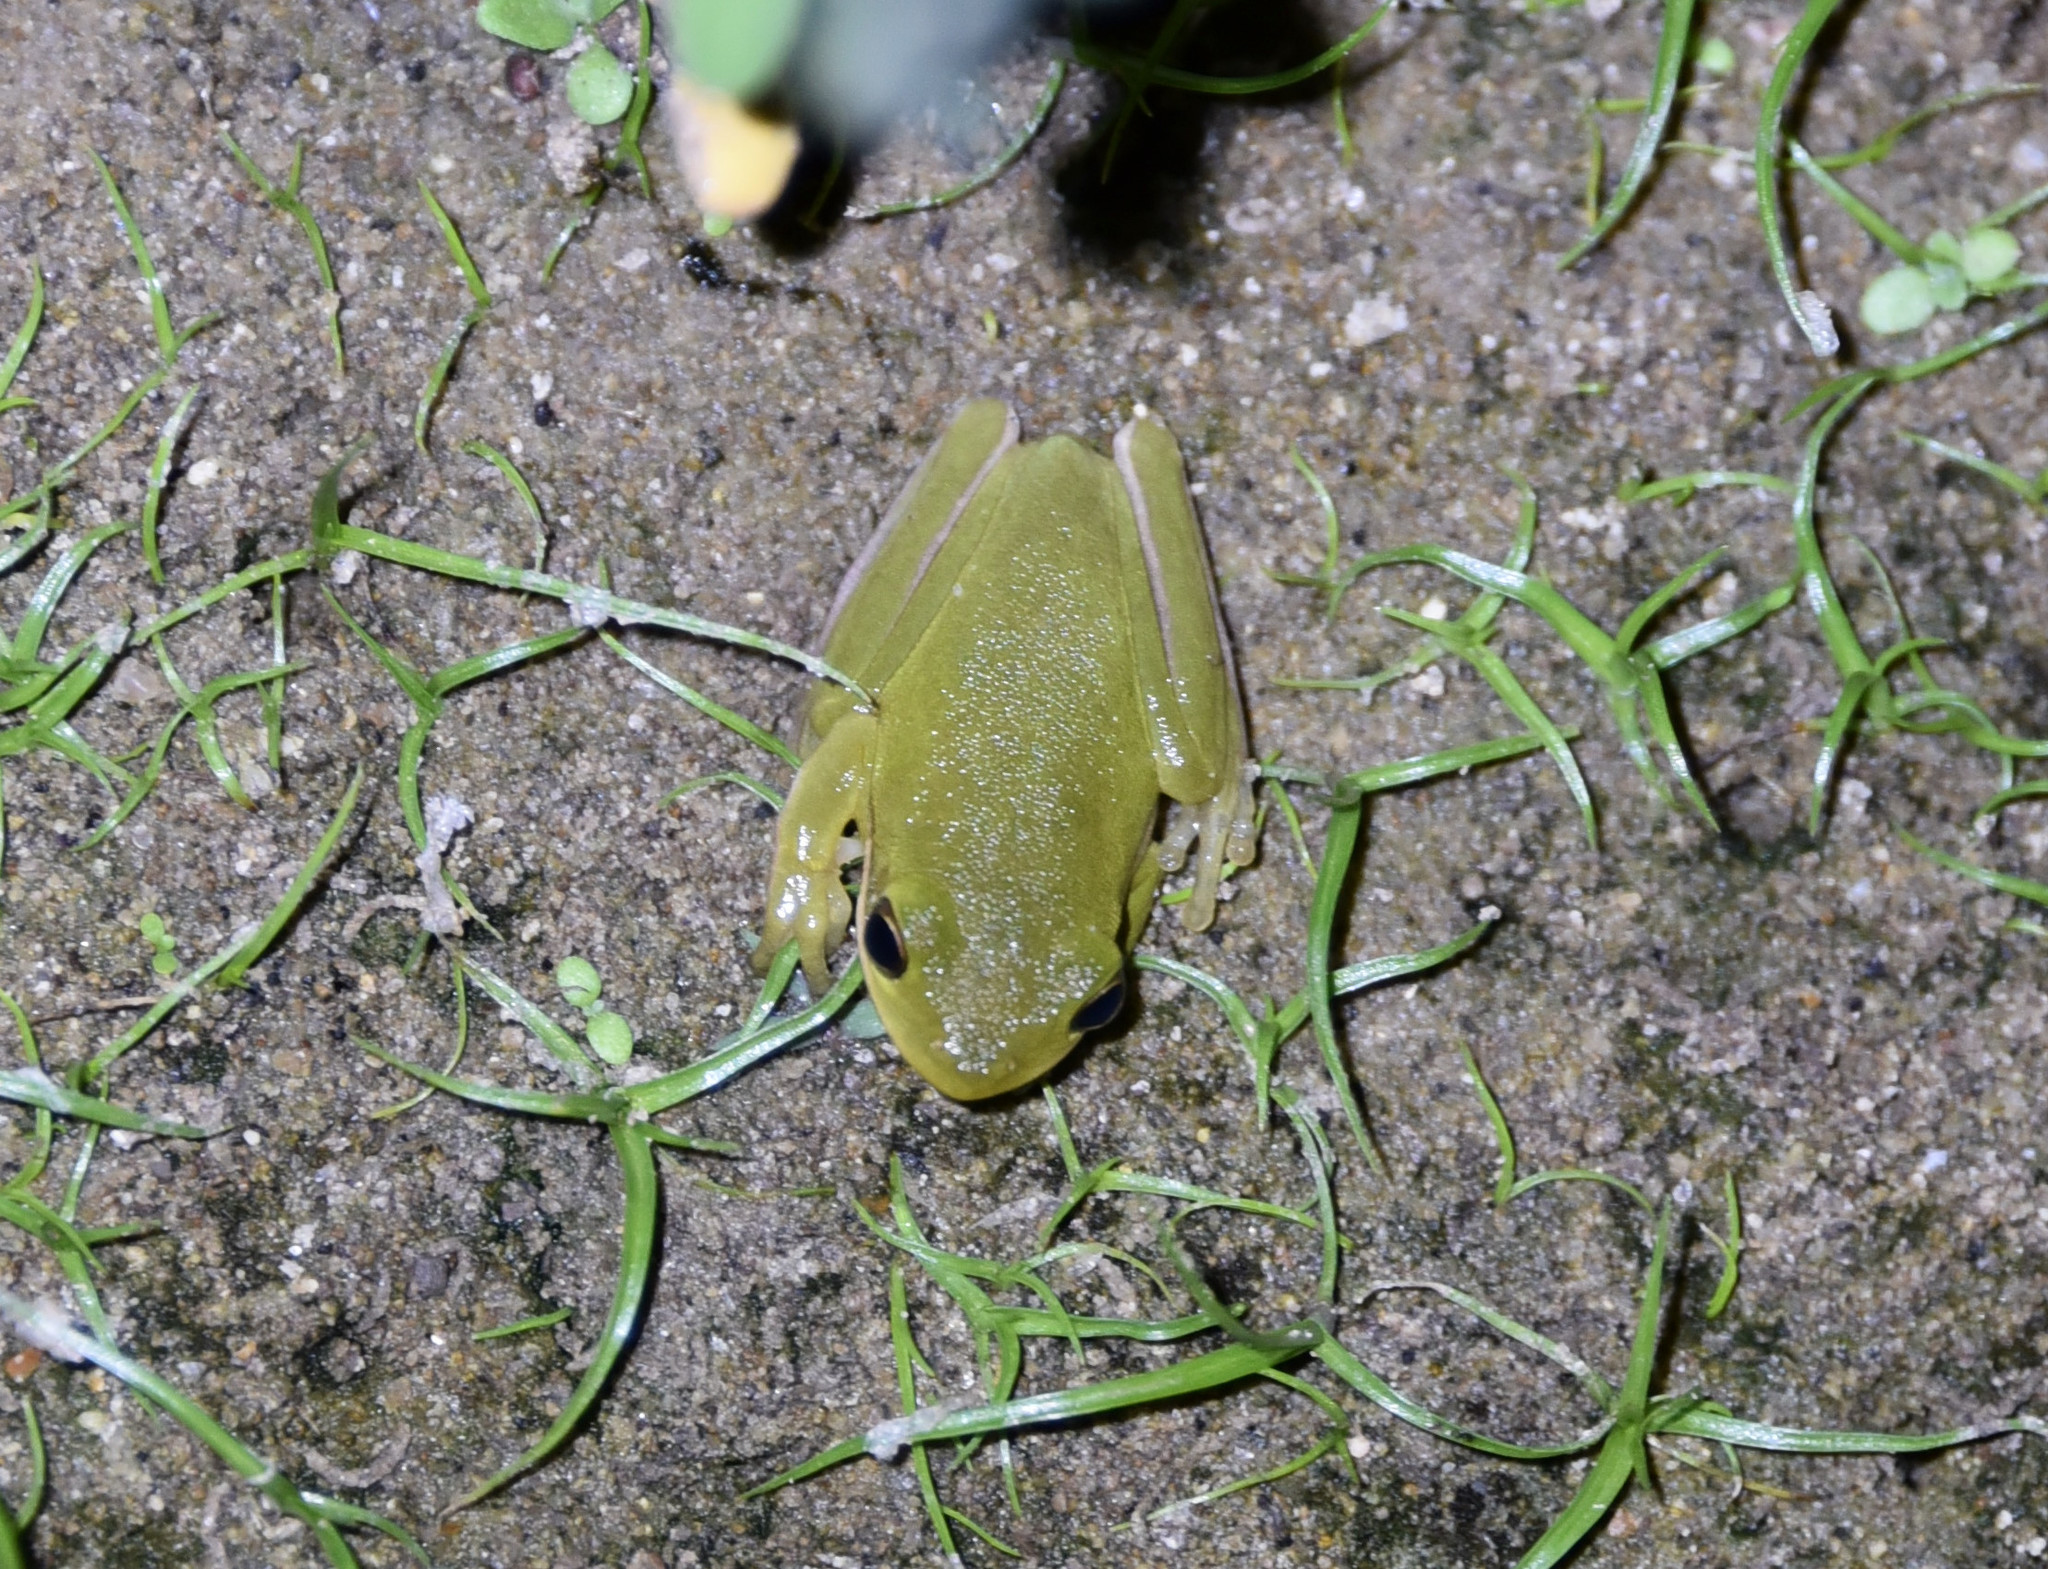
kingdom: Animalia
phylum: Chordata
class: Amphibia
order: Anura
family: Hylidae
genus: Dryophytes
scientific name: Dryophytes cinereus
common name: Green treefrog
